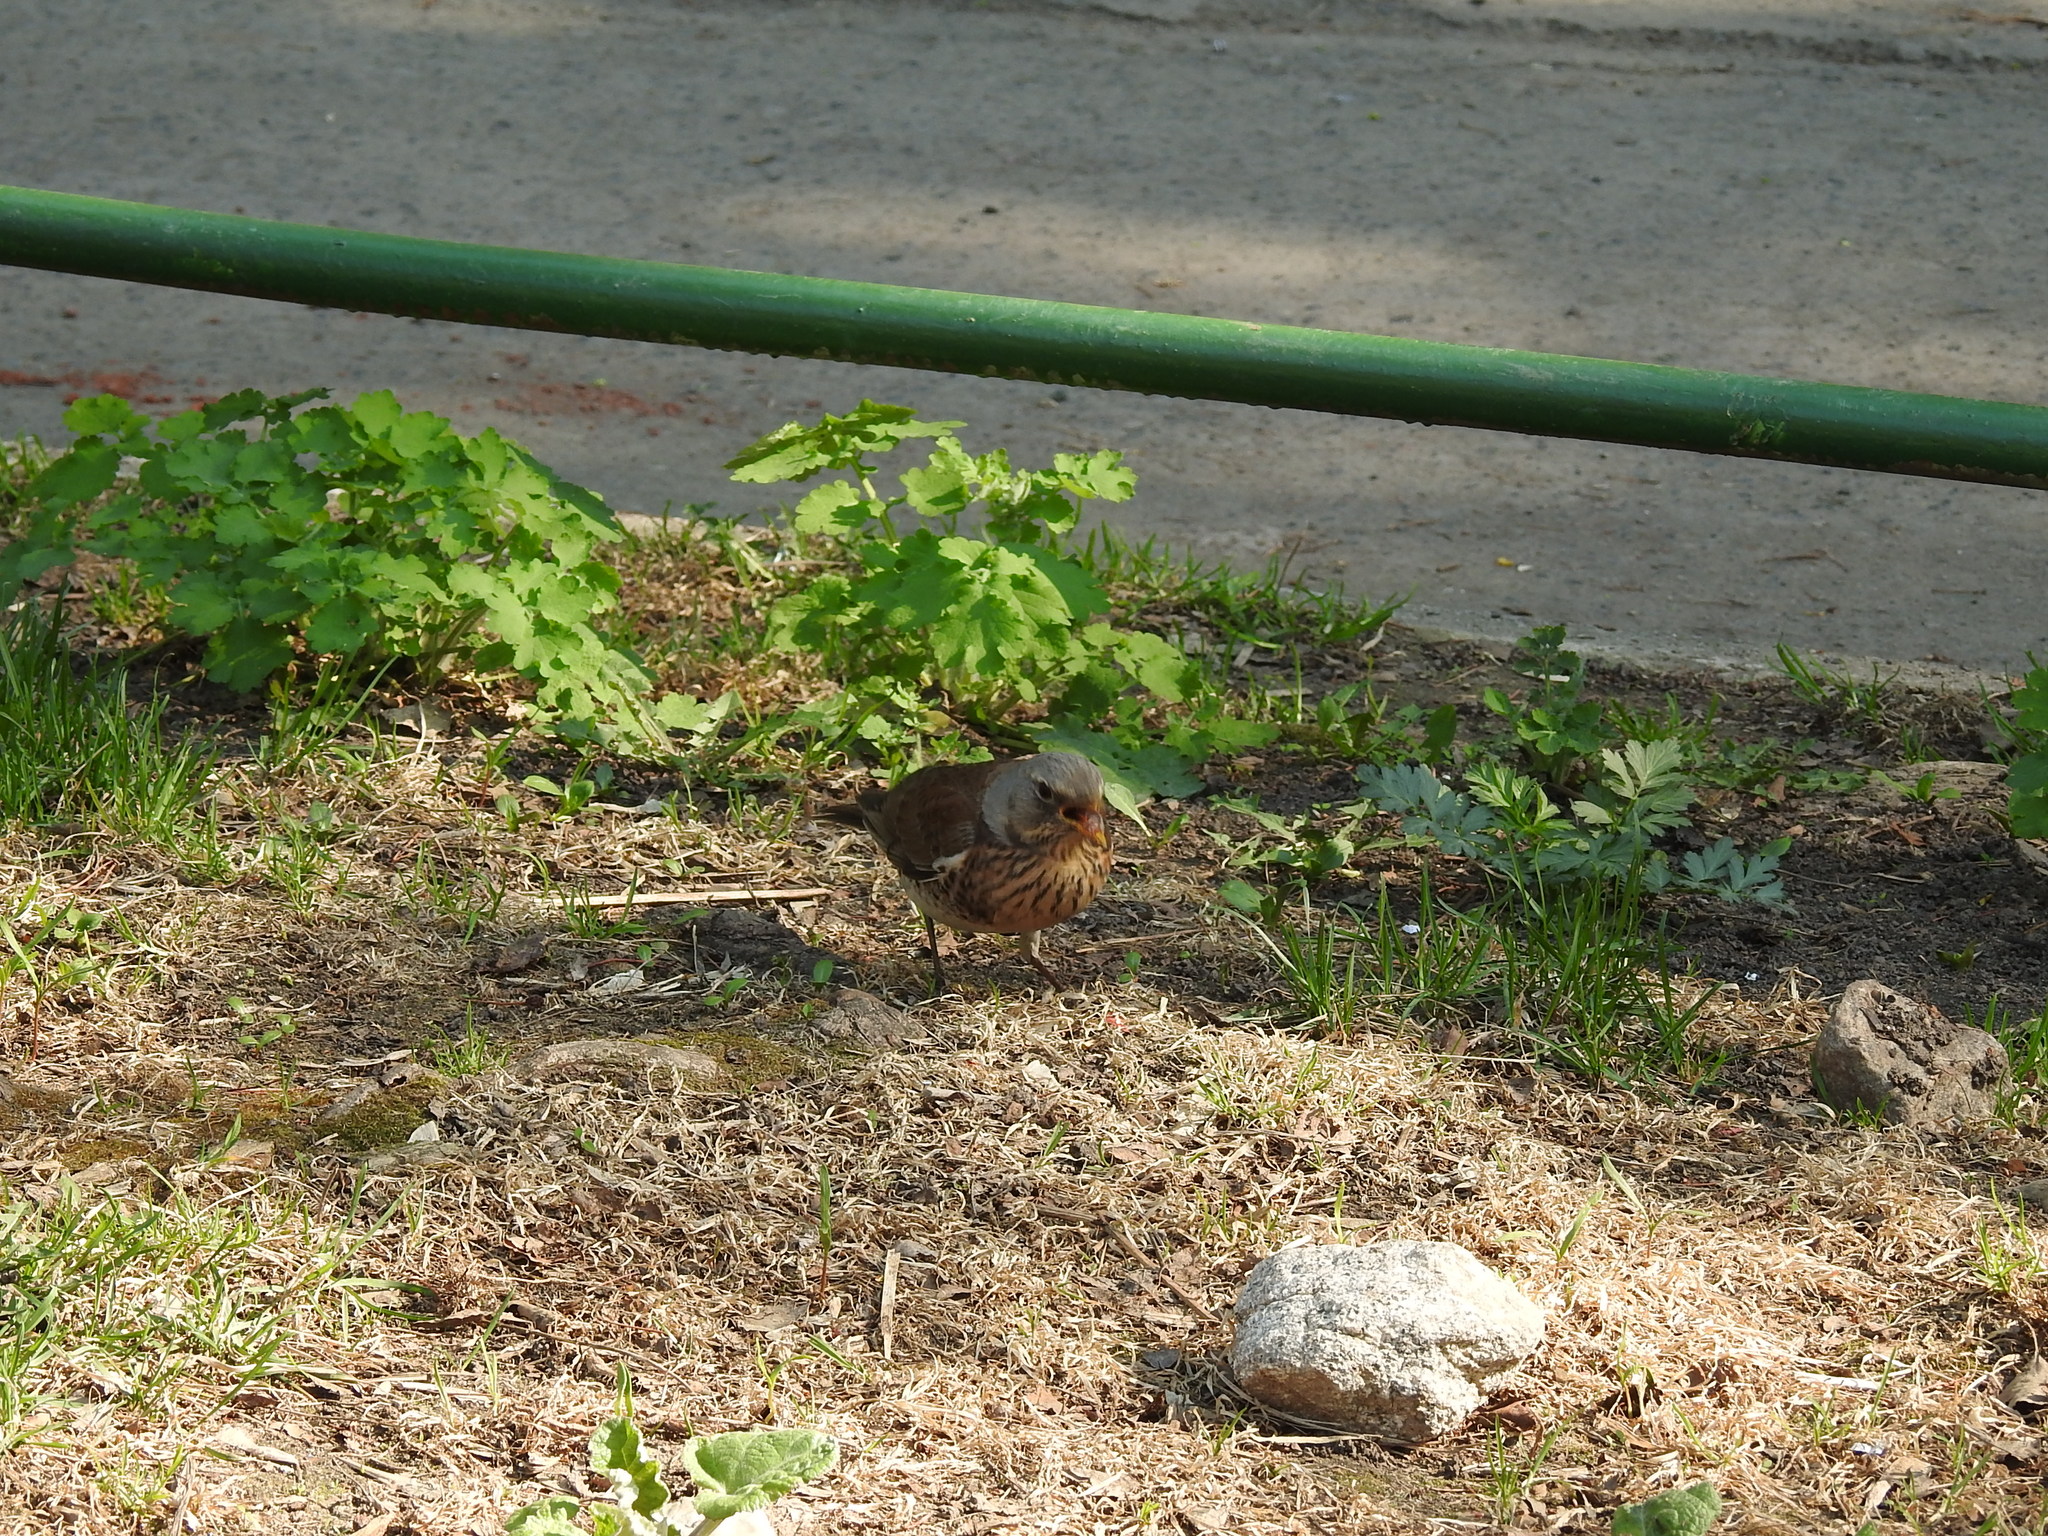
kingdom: Animalia
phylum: Chordata
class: Aves
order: Passeriformes
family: Turdidae
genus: Turdus
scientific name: Turdus pilaris
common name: Fieldfare
